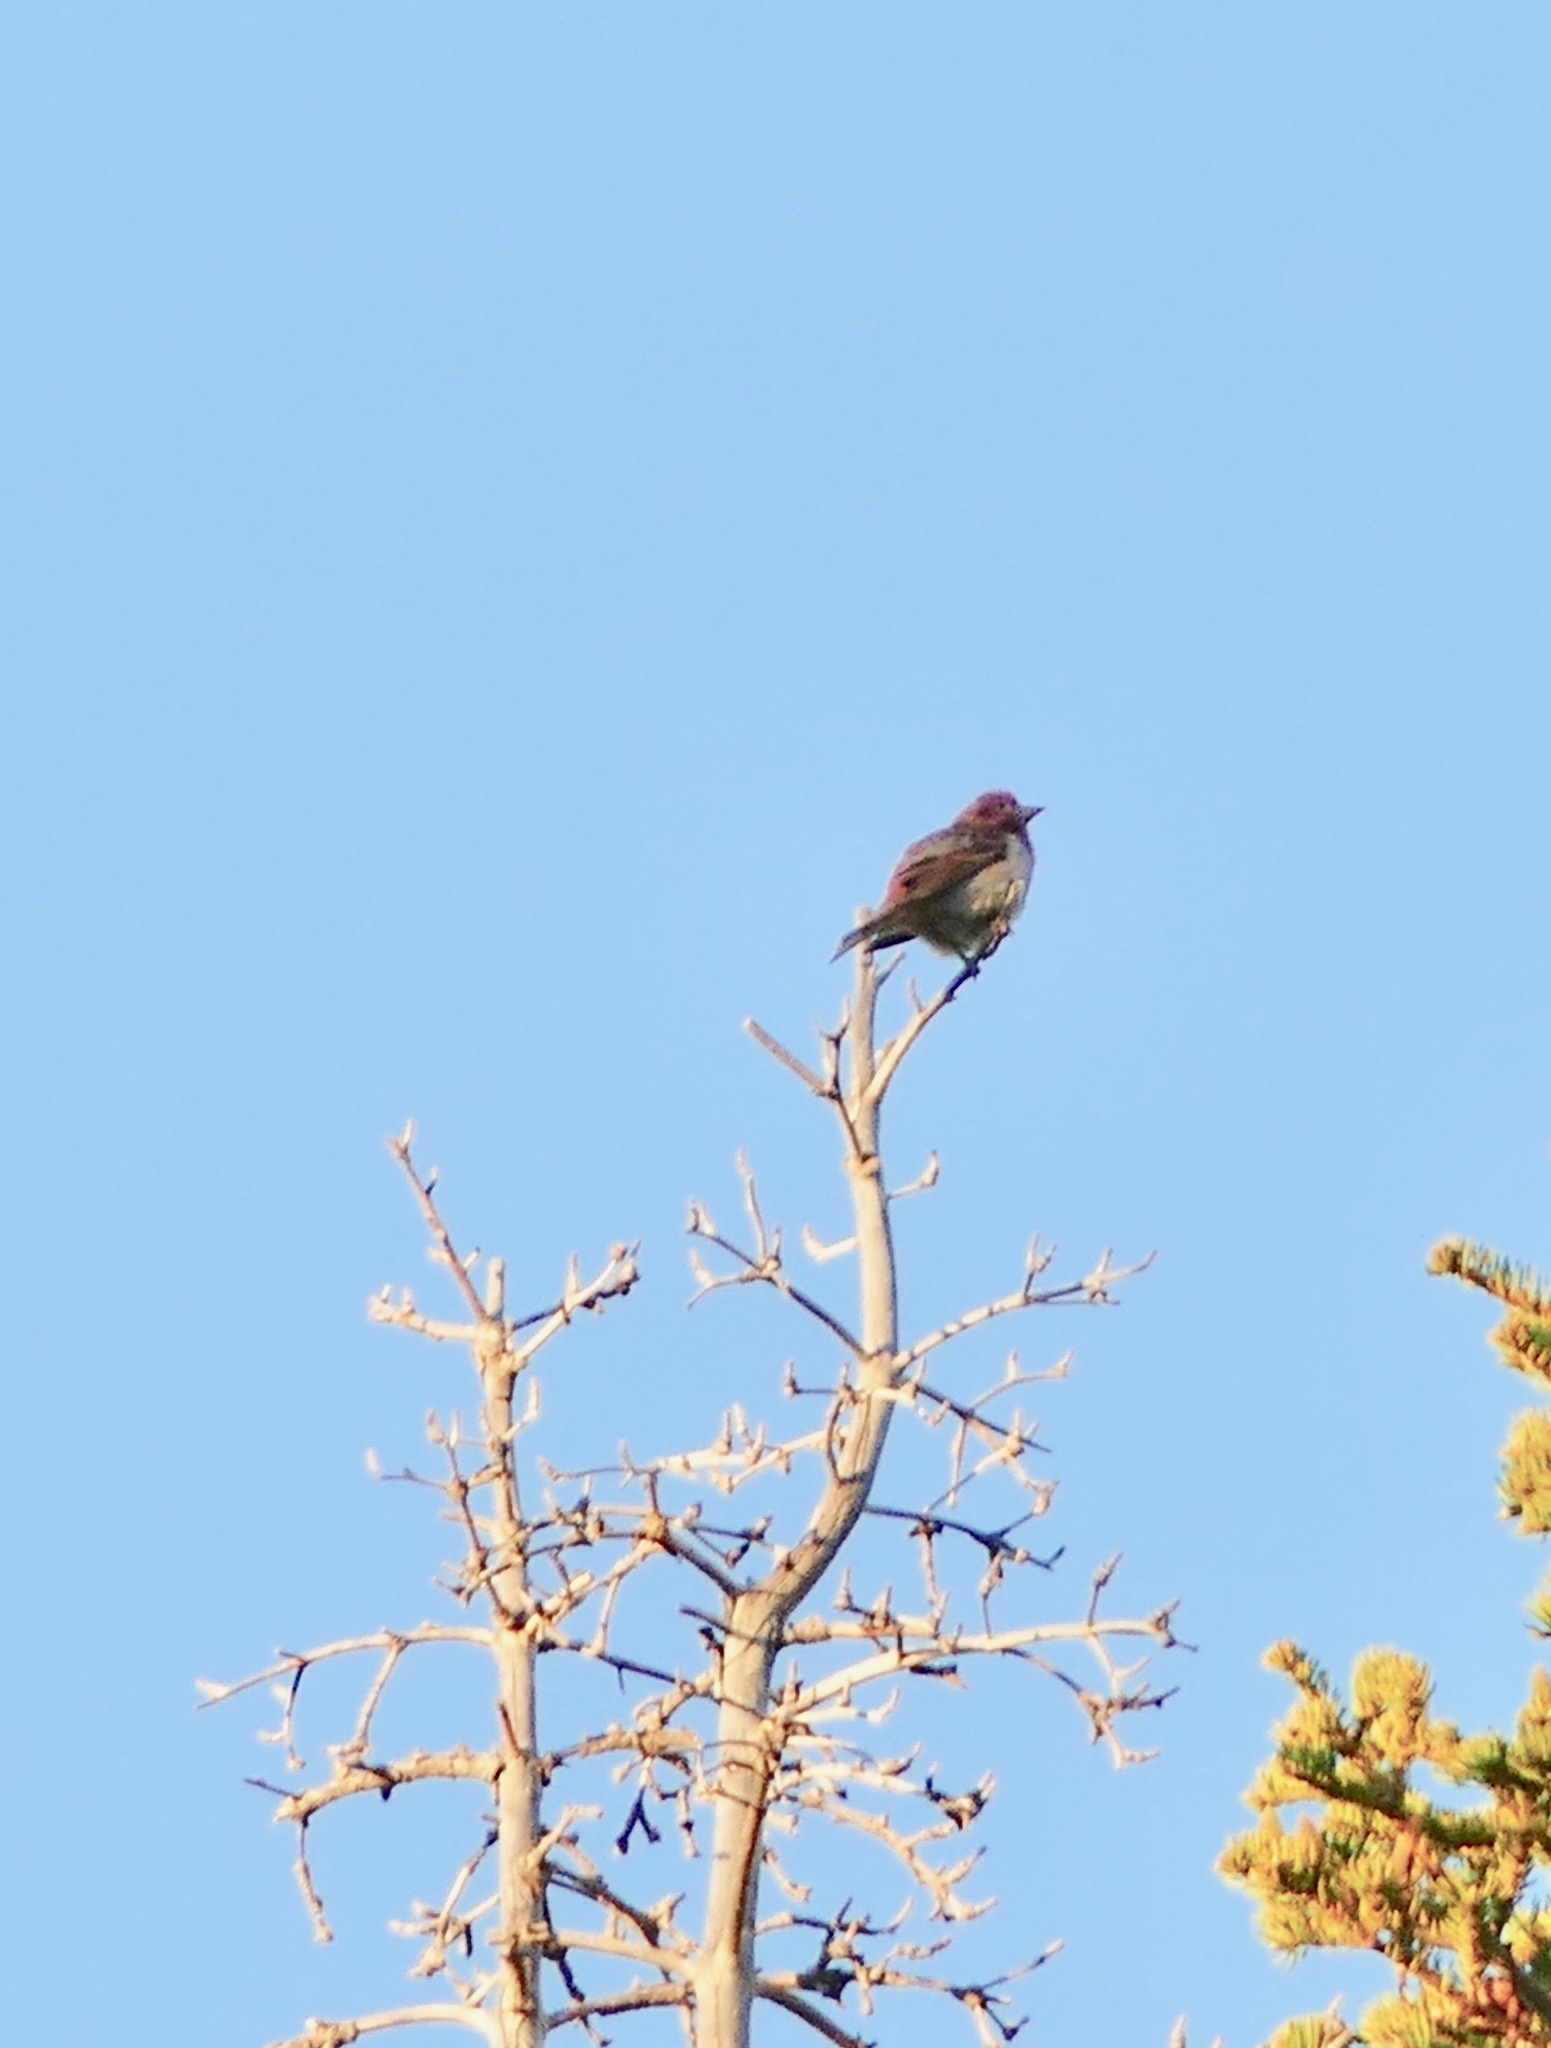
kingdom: Animalia
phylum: Chordata
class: Aves
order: Passeriformes
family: Fringillidae
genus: Haemorhous
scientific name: Haemorhous cassinii
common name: Cassin's finch
